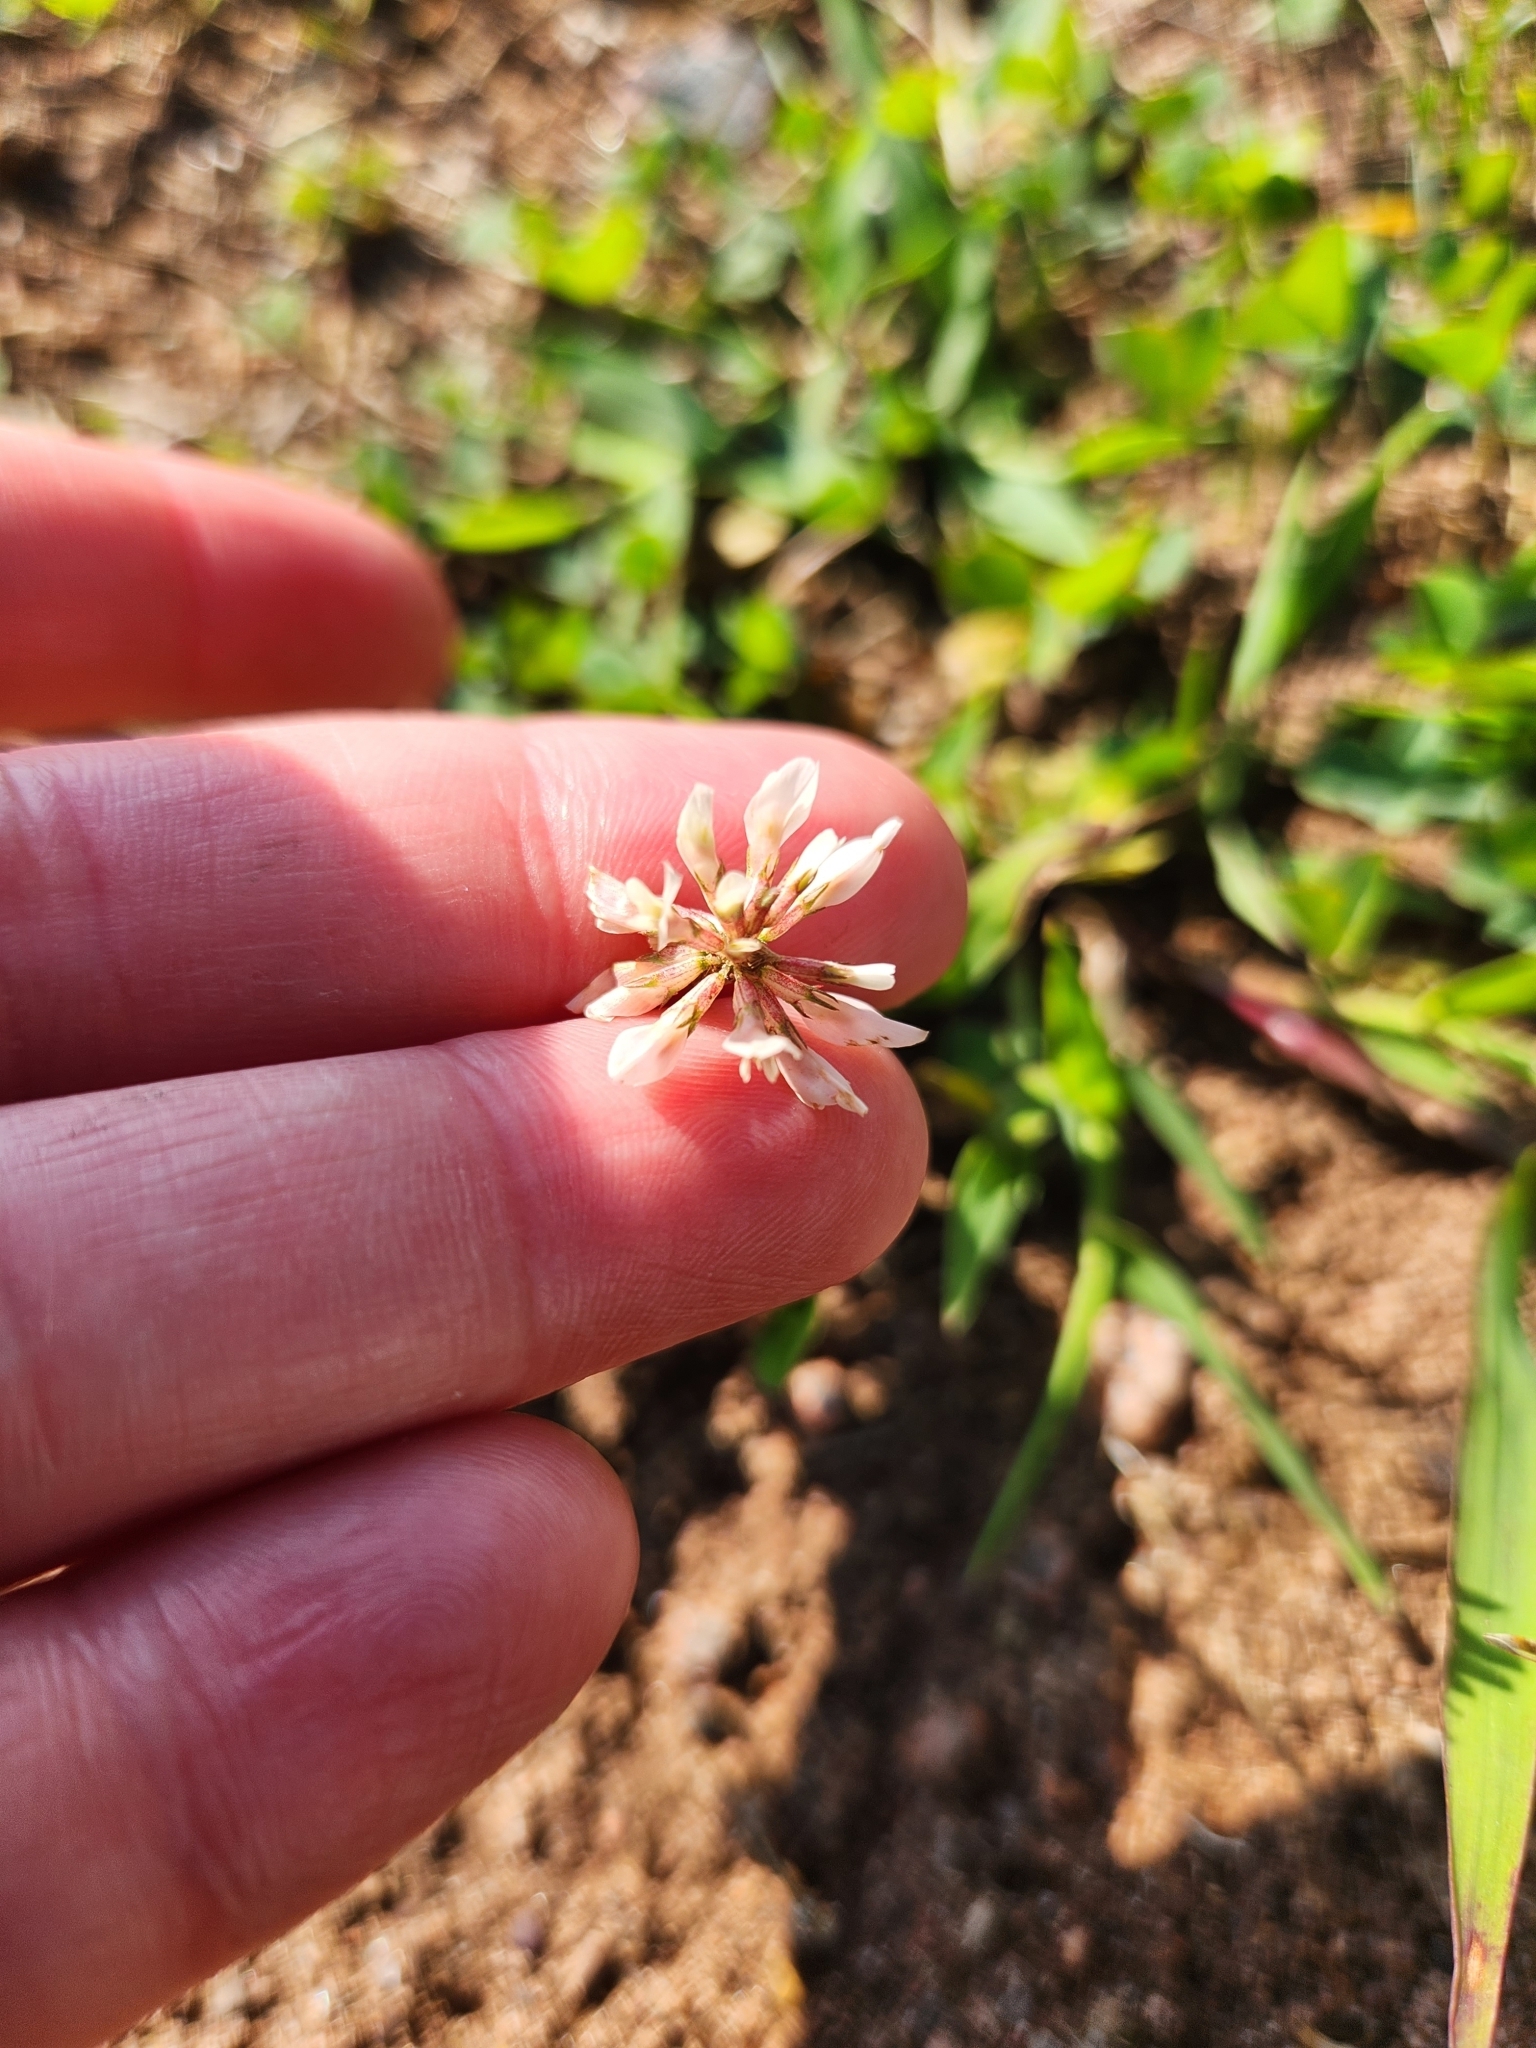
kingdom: Plantae
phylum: Tracheophyta
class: Magnoliopsida
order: Fabales
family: Fabaceae
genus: Trifolium
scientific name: Trifolium repens
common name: White clover
